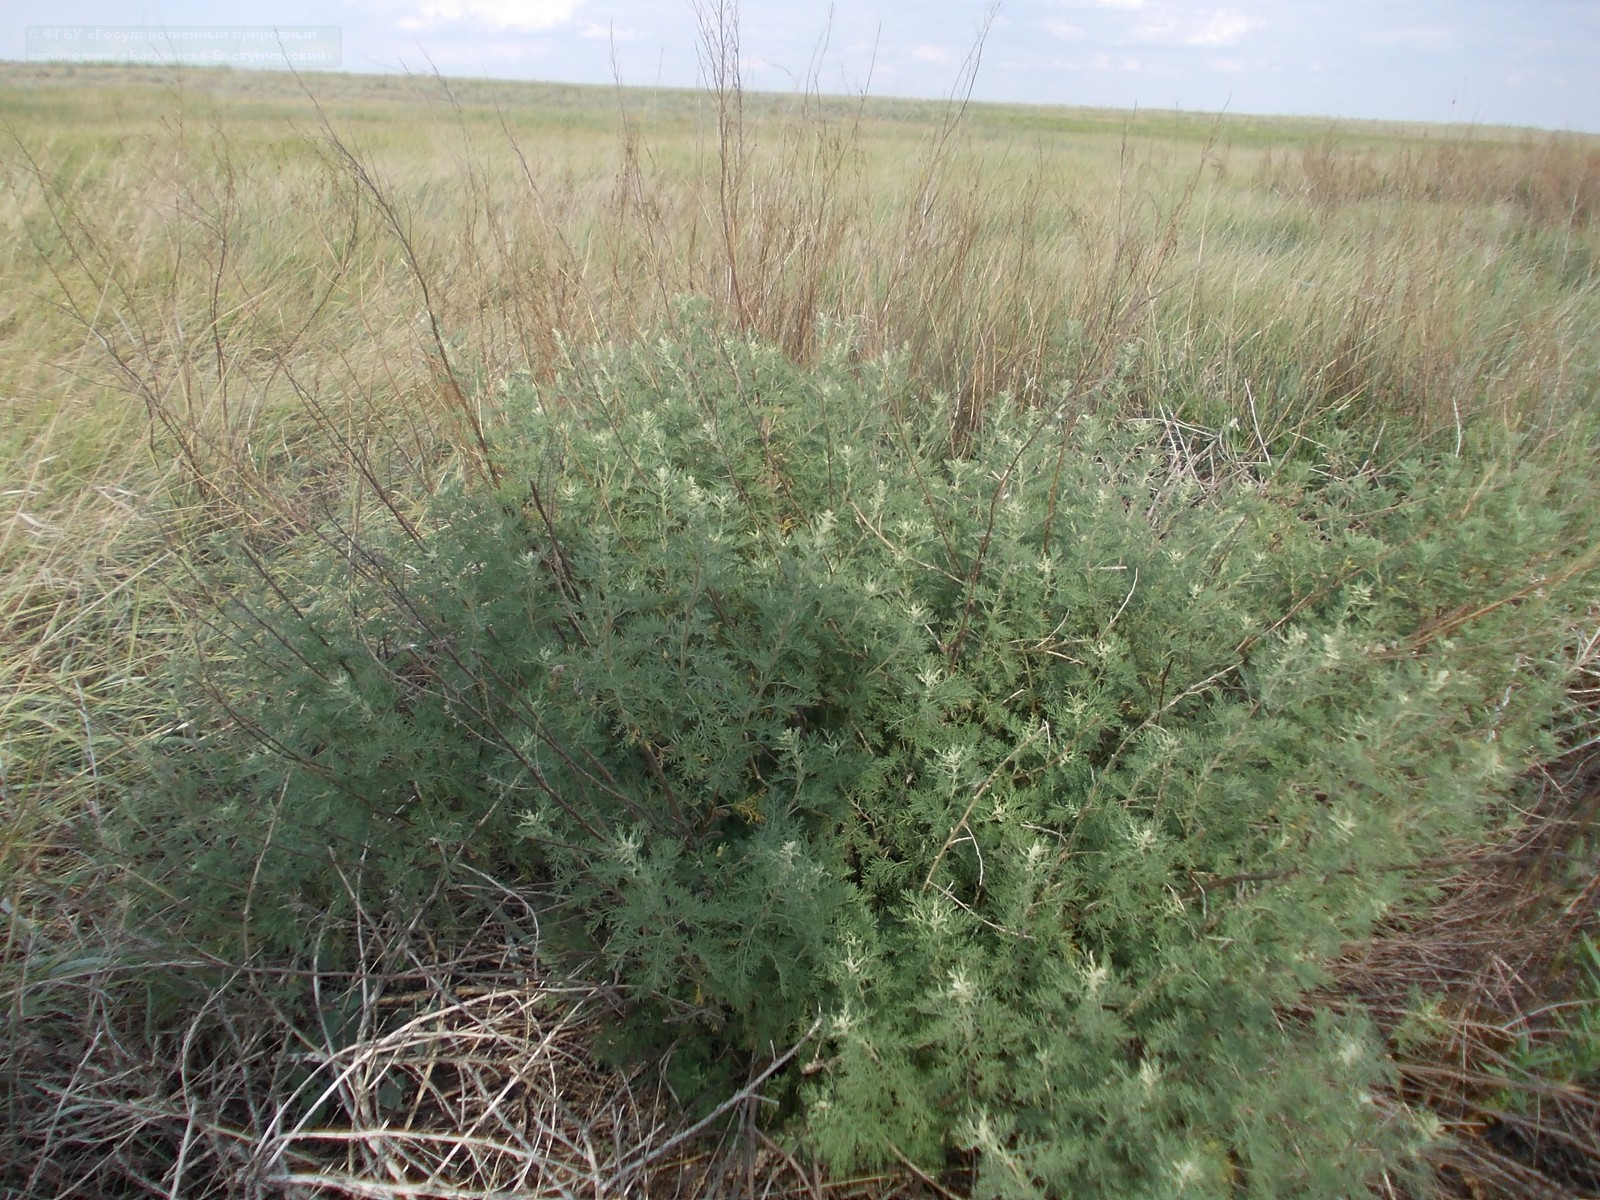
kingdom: Plantae
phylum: Tracheophyta
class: Magnoliopsida
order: Asterales
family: Asteraceae
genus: Artemisia
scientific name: Artemisia abrotanum
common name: Southernwood
